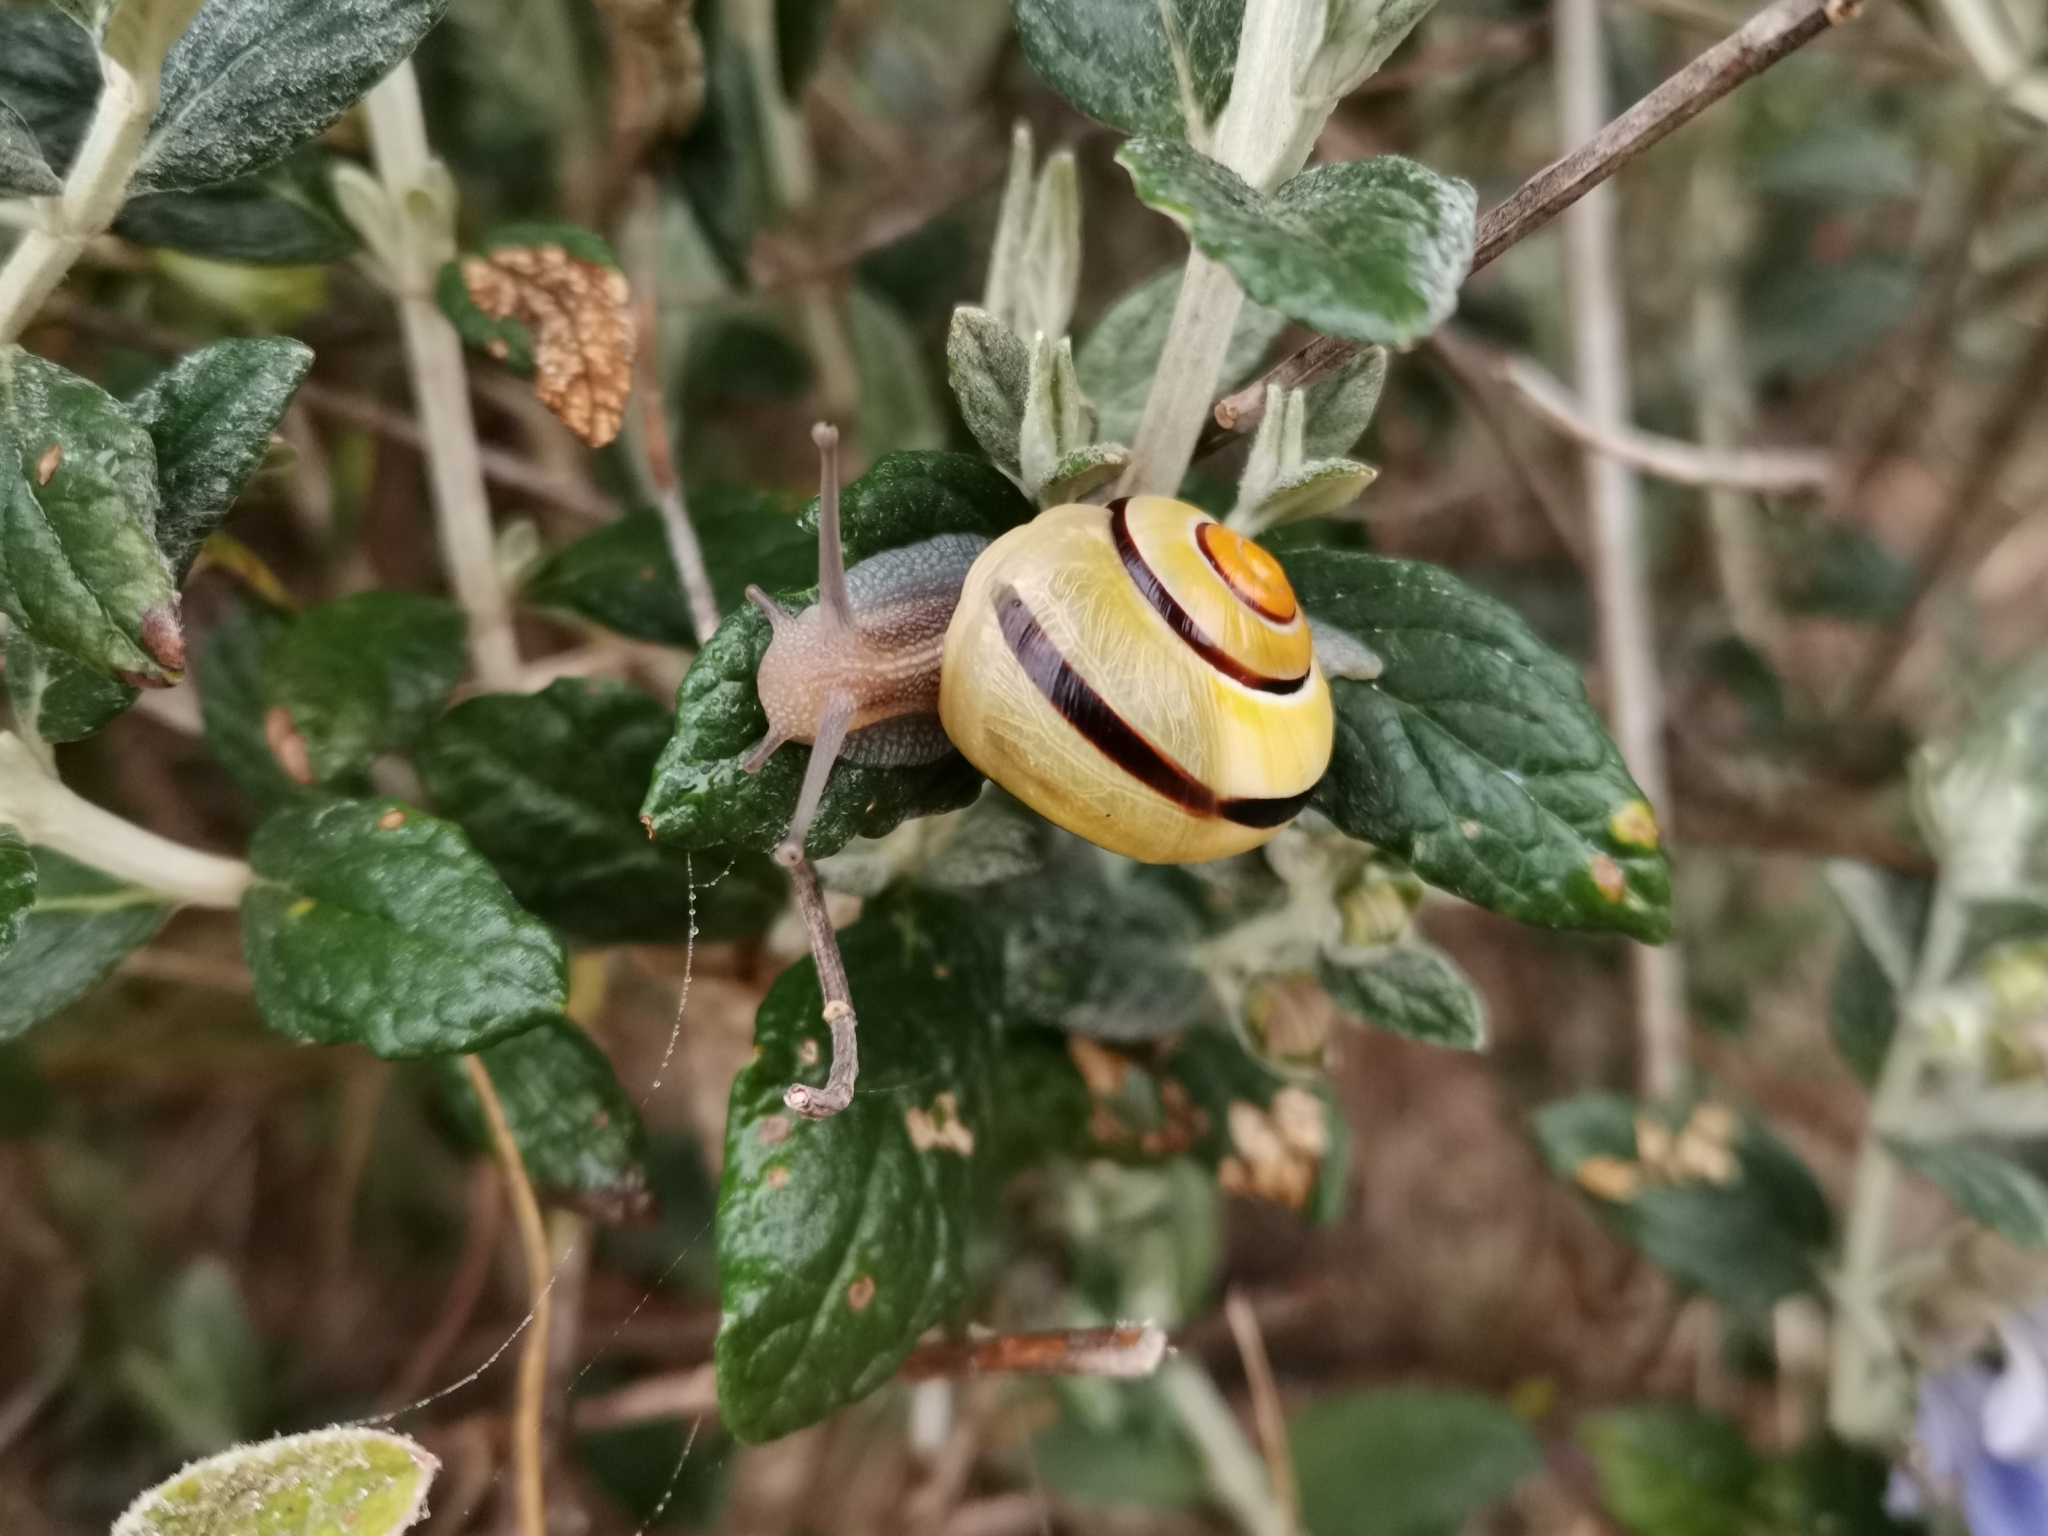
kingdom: Animalia
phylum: Mollusca
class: Gastropoda
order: Stylommatophora
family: Helicidae
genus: Cepaea
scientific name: Cepaea hortensis
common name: White-lip gardensnail
